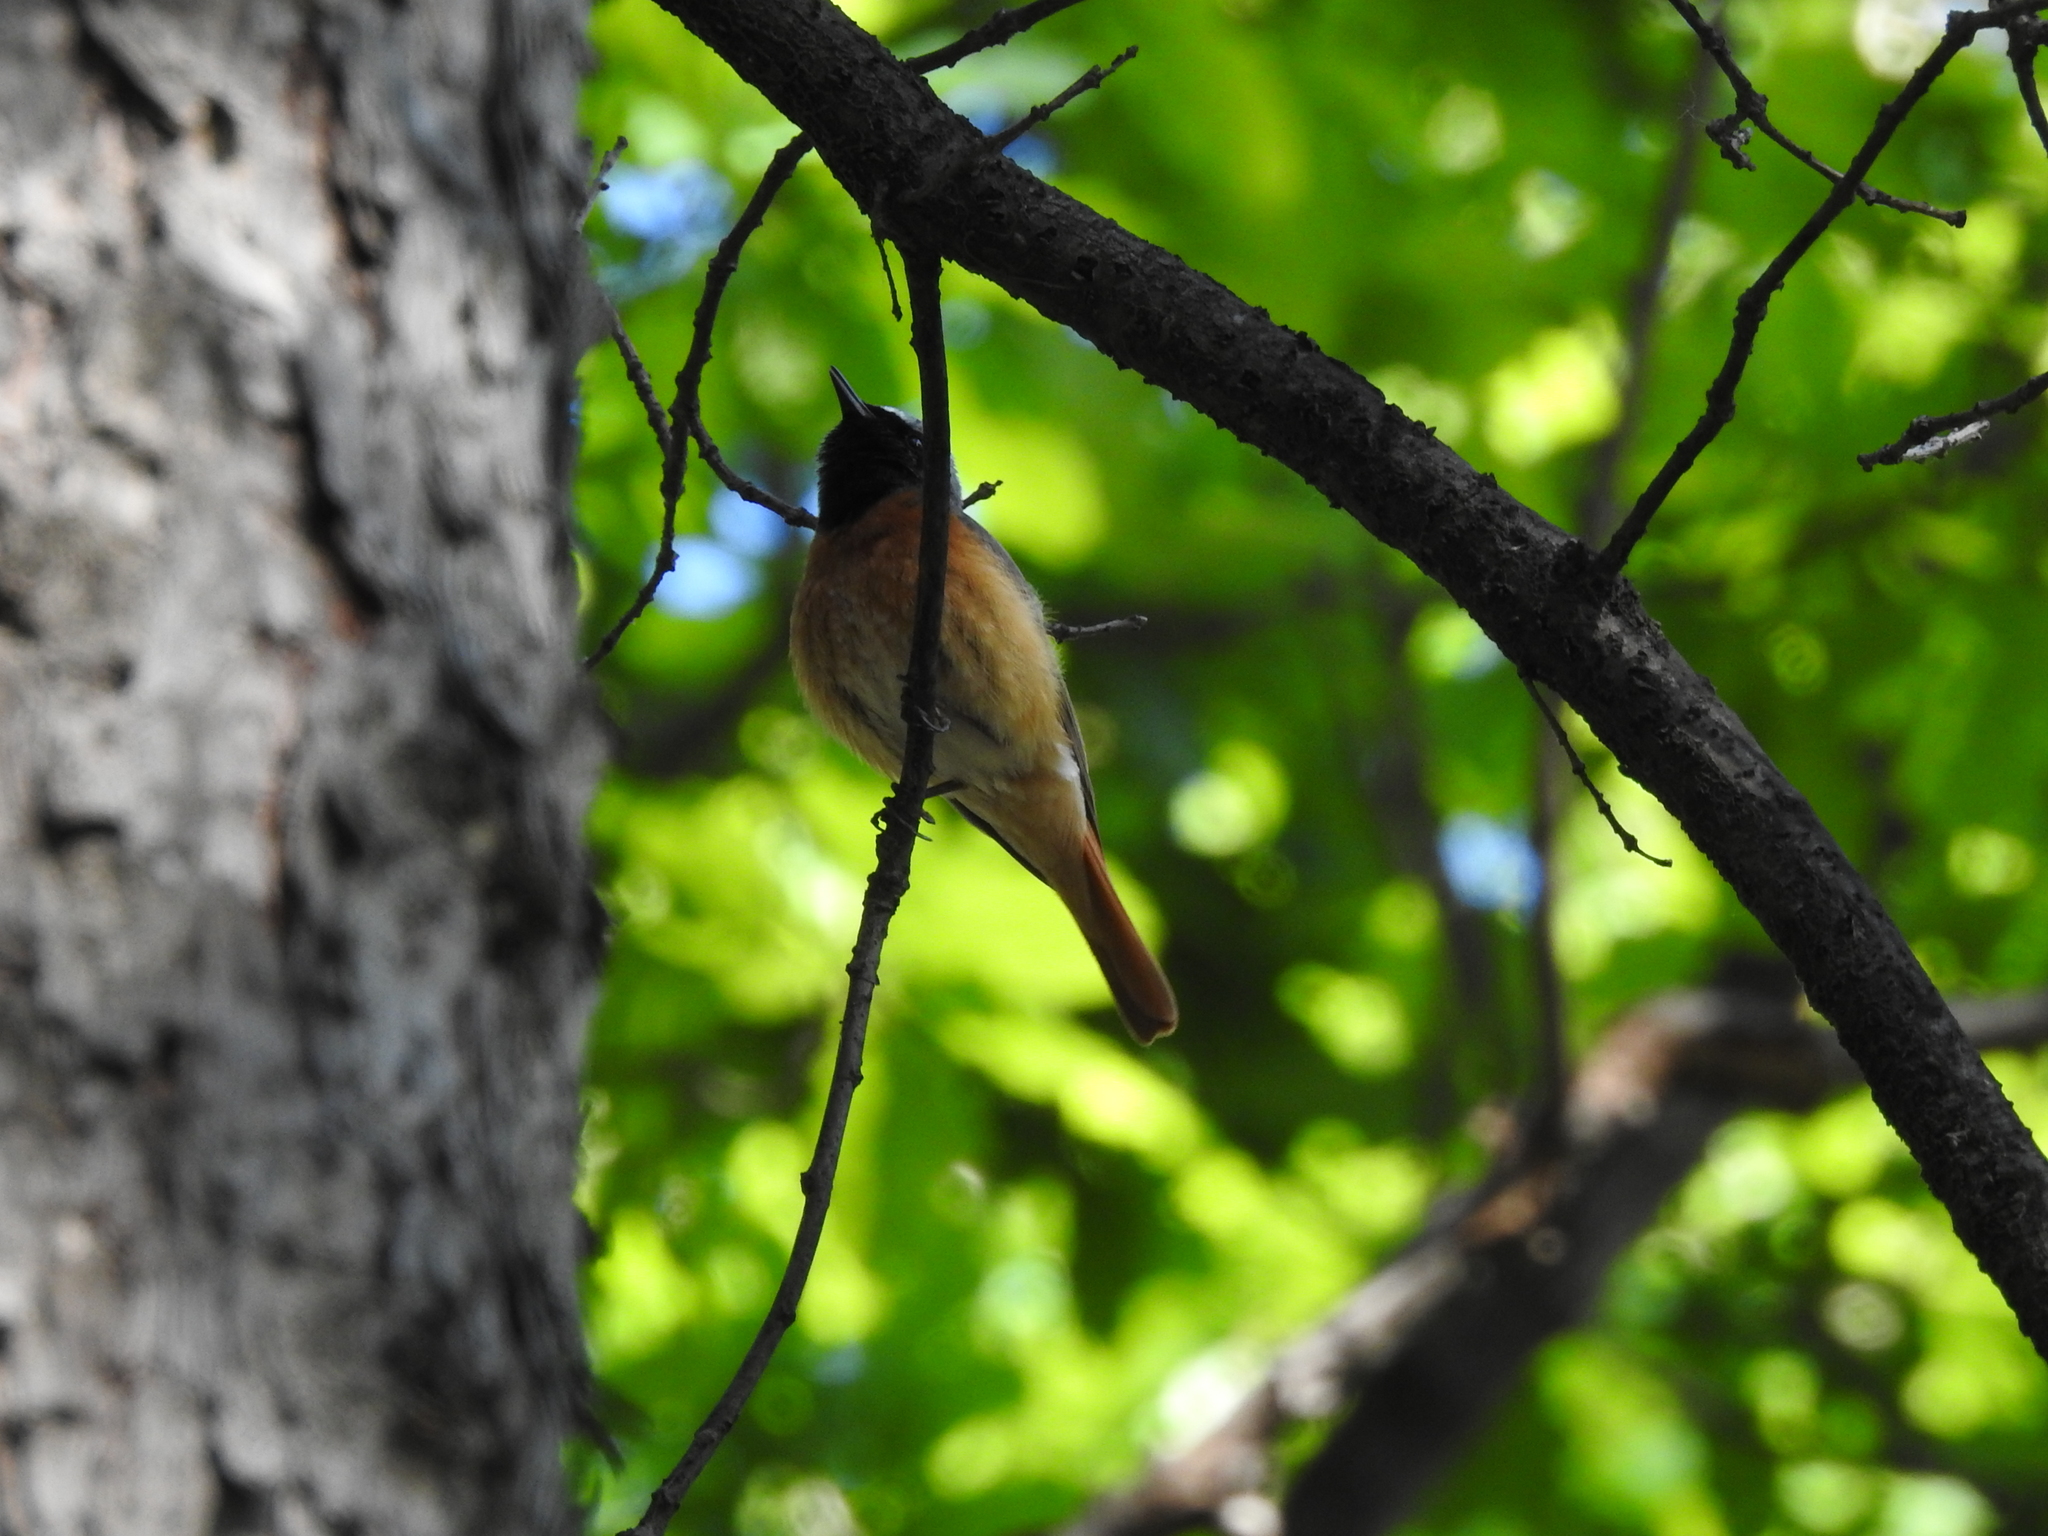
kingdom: Animalia
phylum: Chordata
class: Aves
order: Passeriformes
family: Muscicapidae
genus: Phoenicurus
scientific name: Phoenicurus phoenicurus
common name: Common redstart
